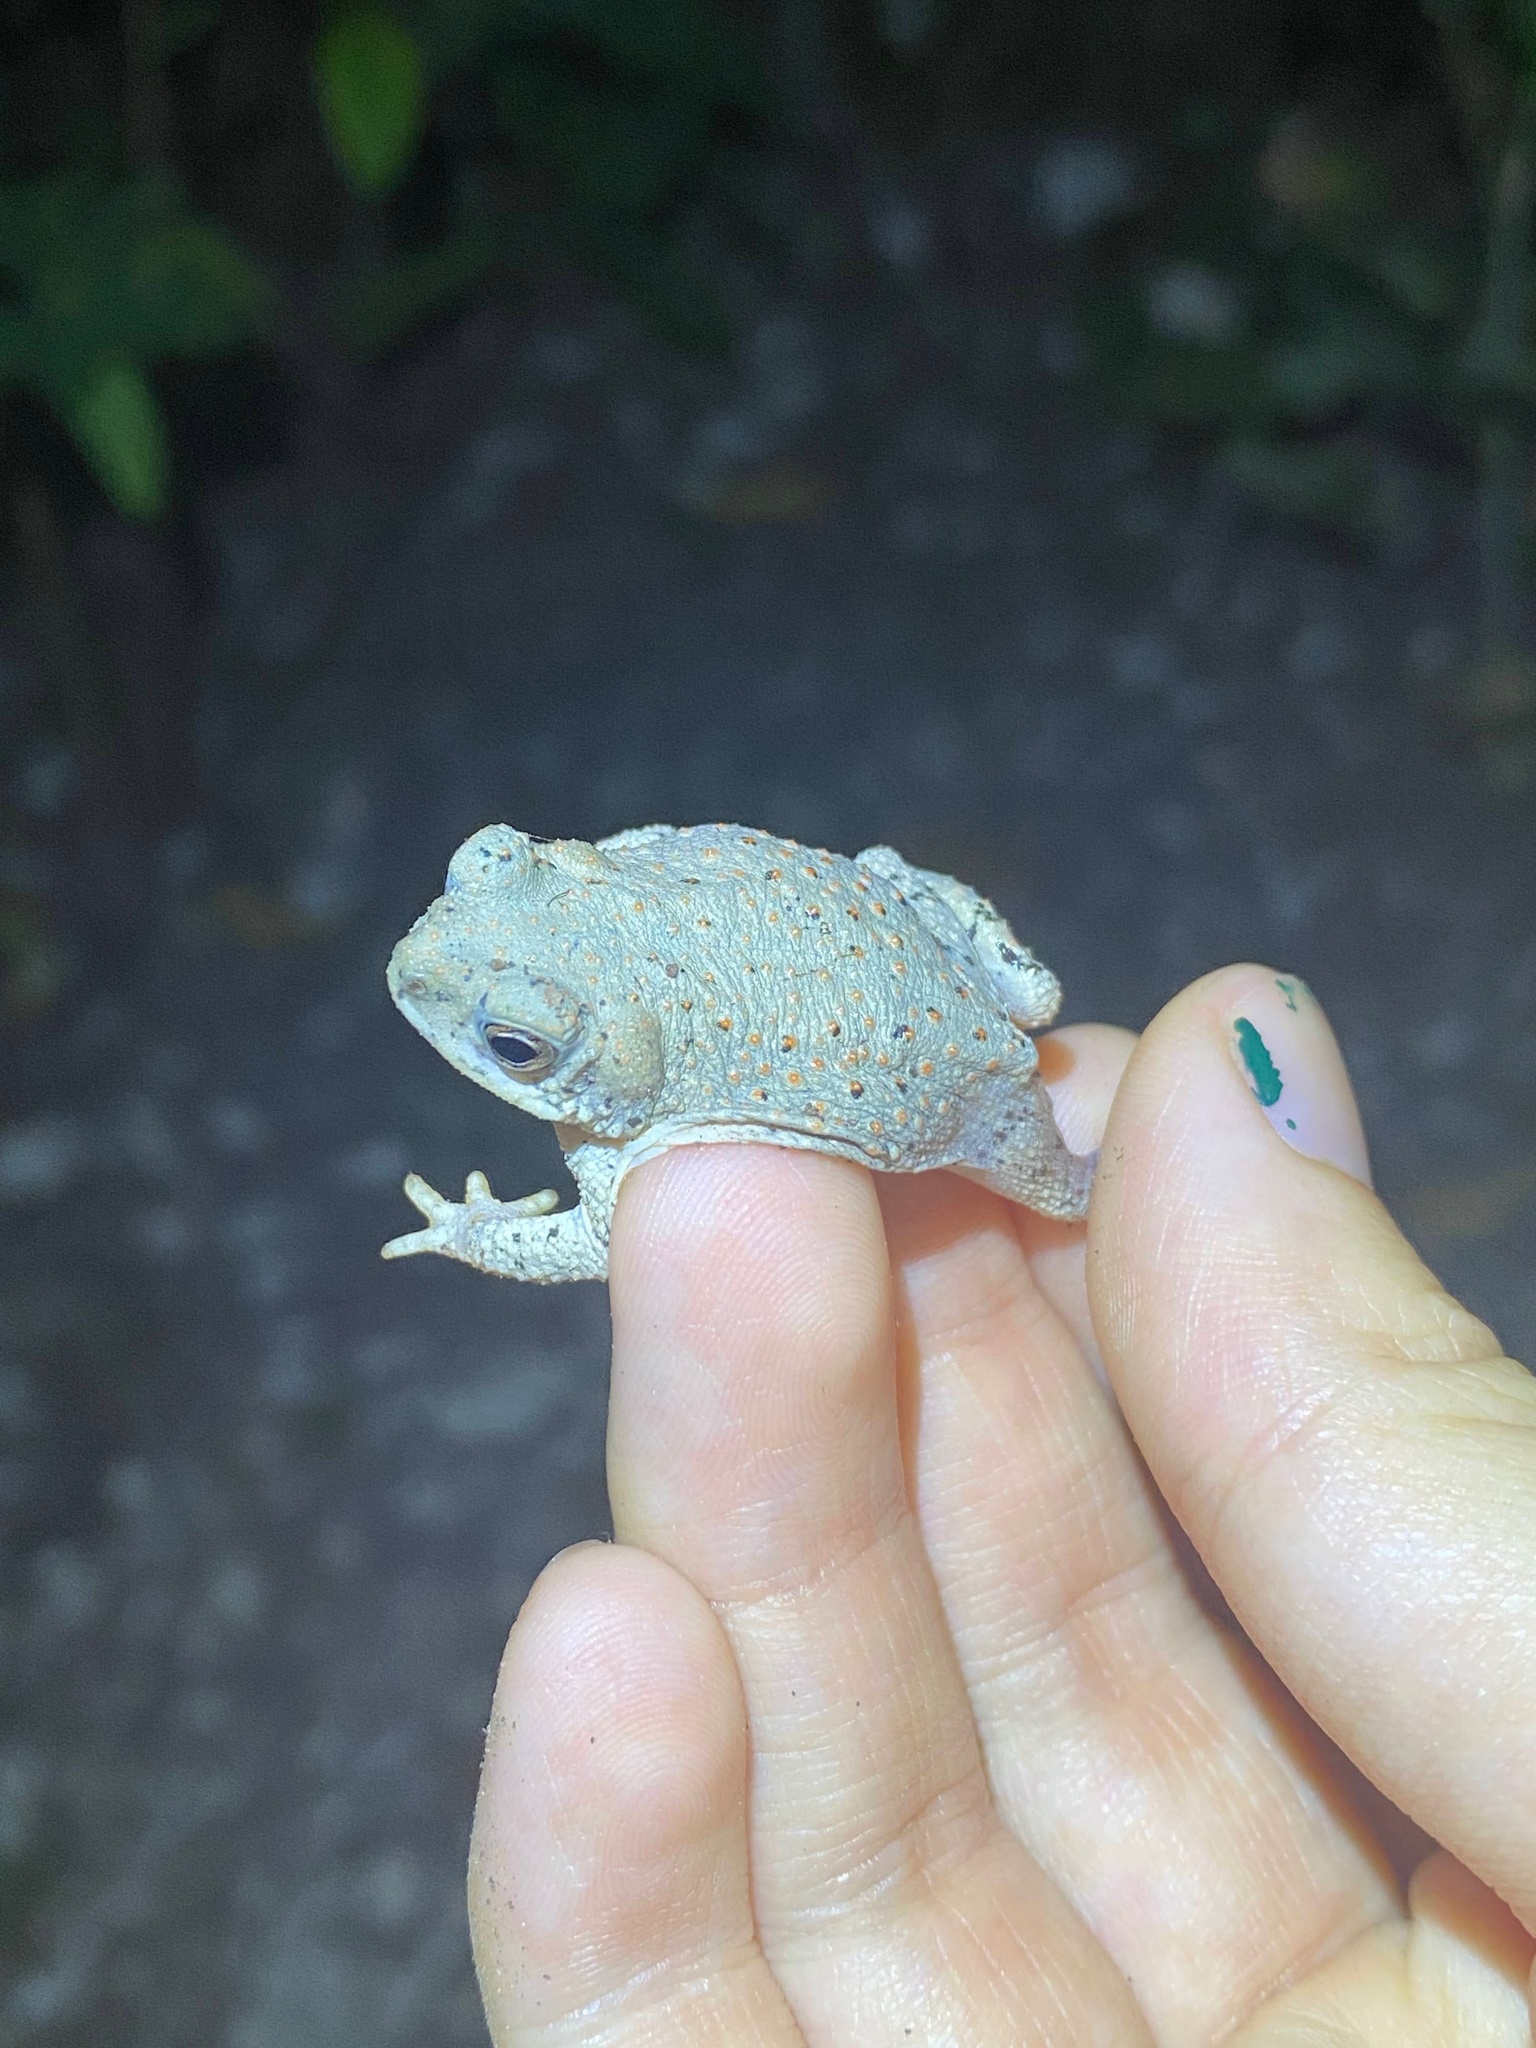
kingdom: Animalia
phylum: Chordata
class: Amphibia
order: Anura
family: Bufonidae
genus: Anaxyrus
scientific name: Anaxyrus punctatus
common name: Red-spotted toad
